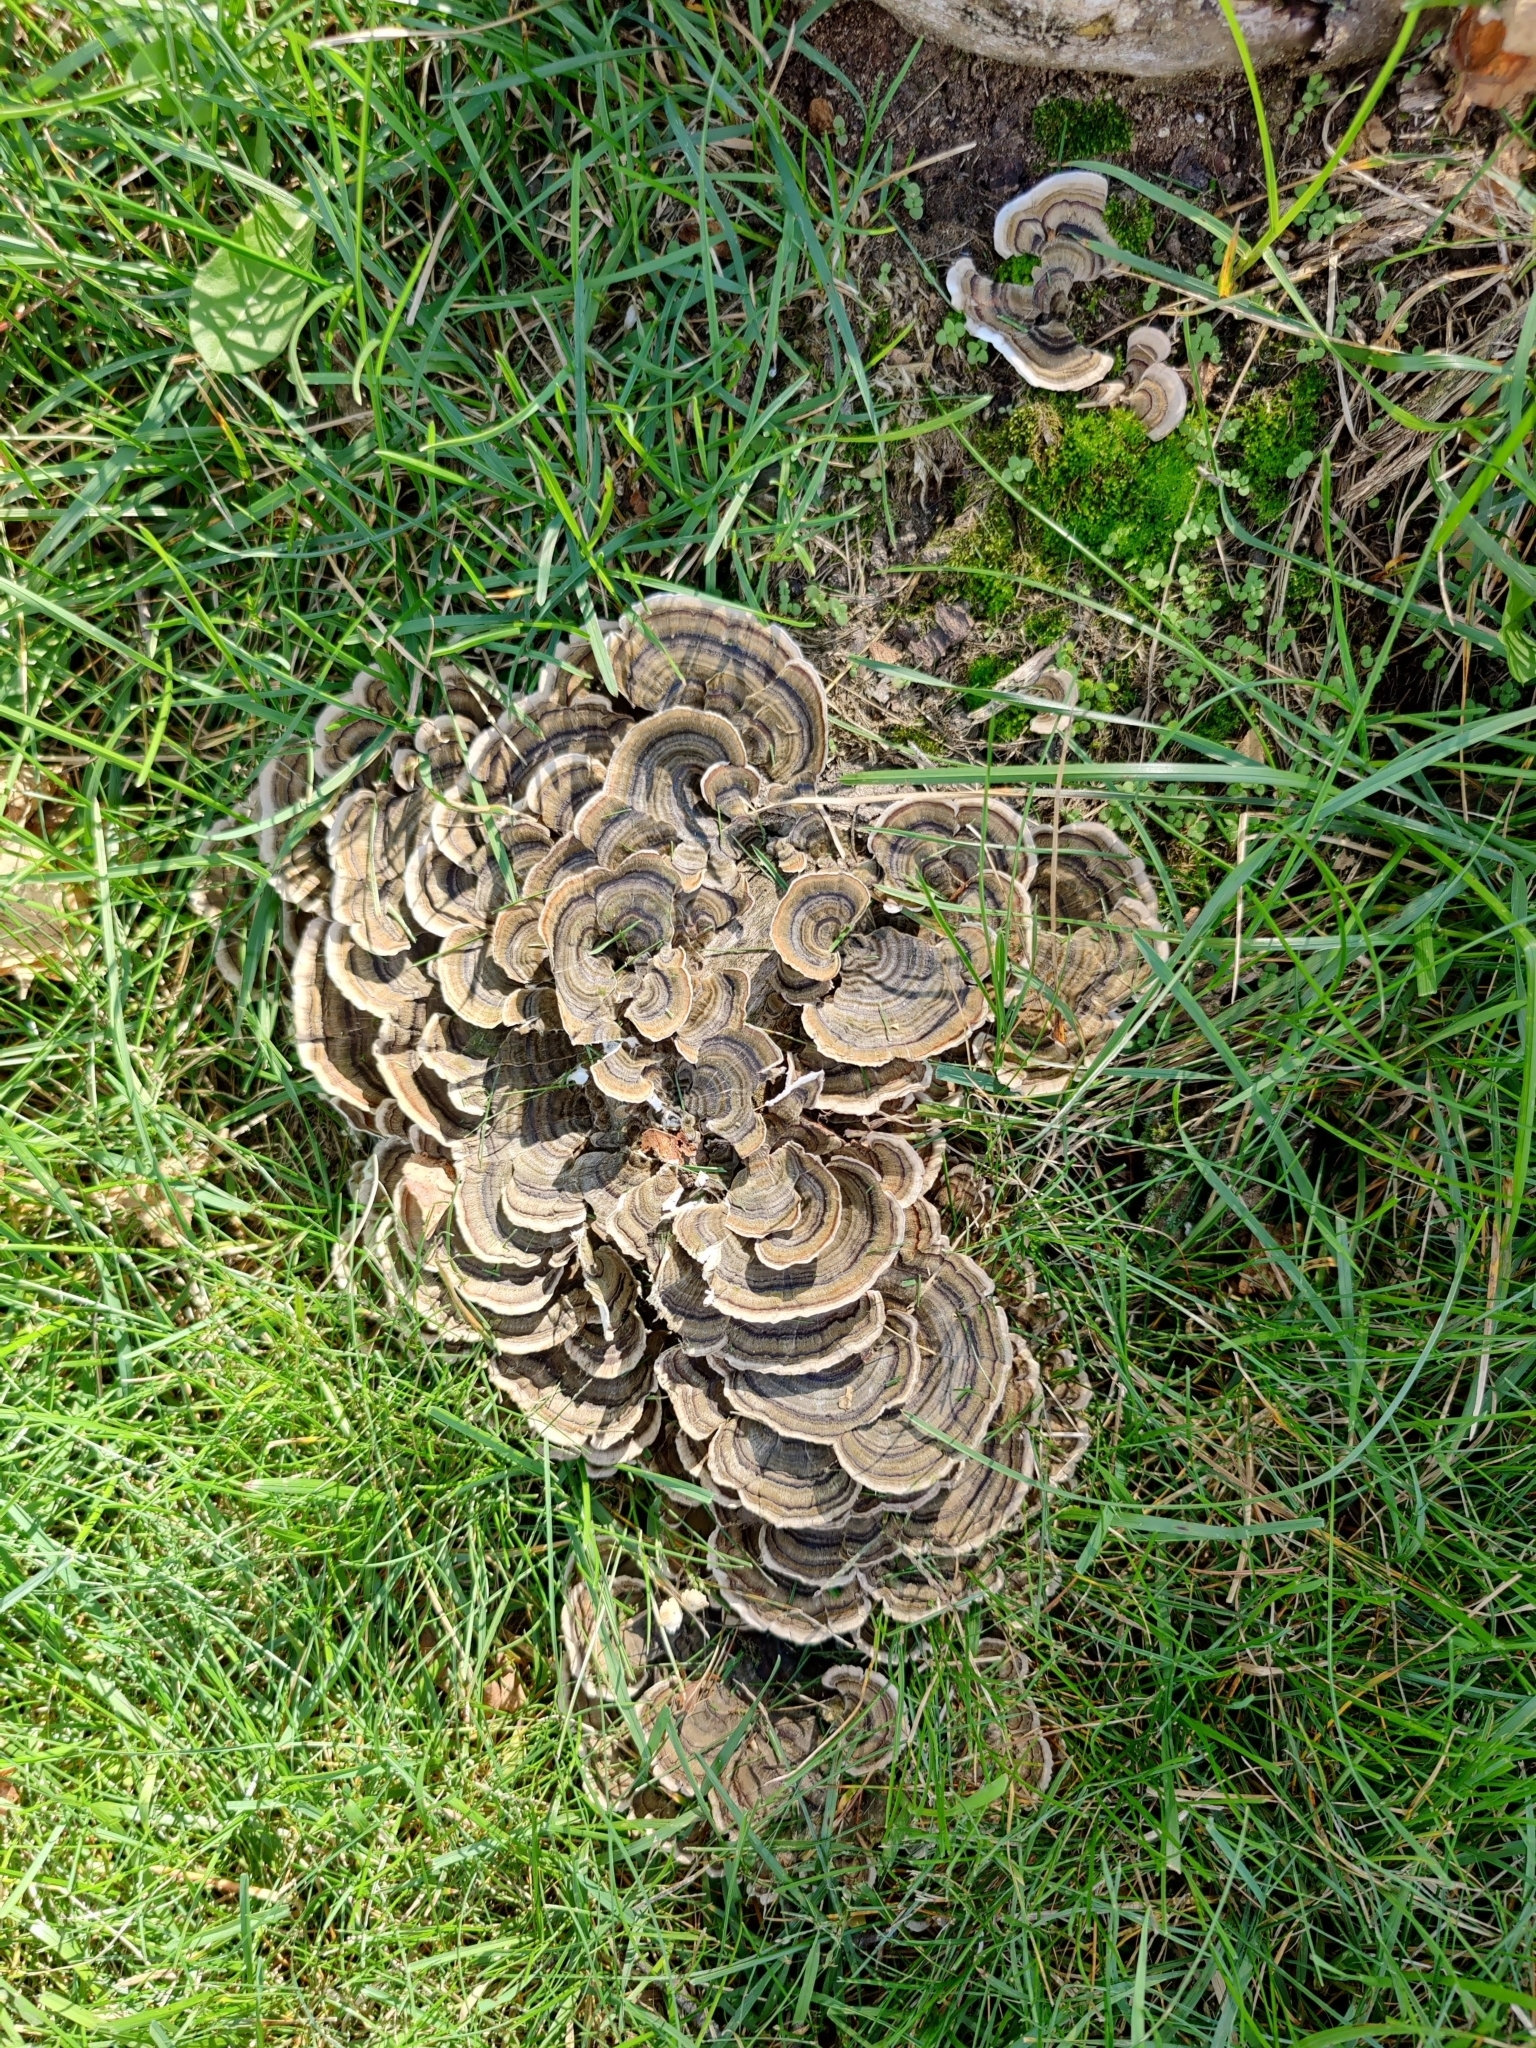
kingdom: Fungi
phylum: Basidiomycota
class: Agaricomycetes
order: Polyporales
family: Polyporaceae
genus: Trametes
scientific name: Trametes versicolor
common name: Turkeytail
